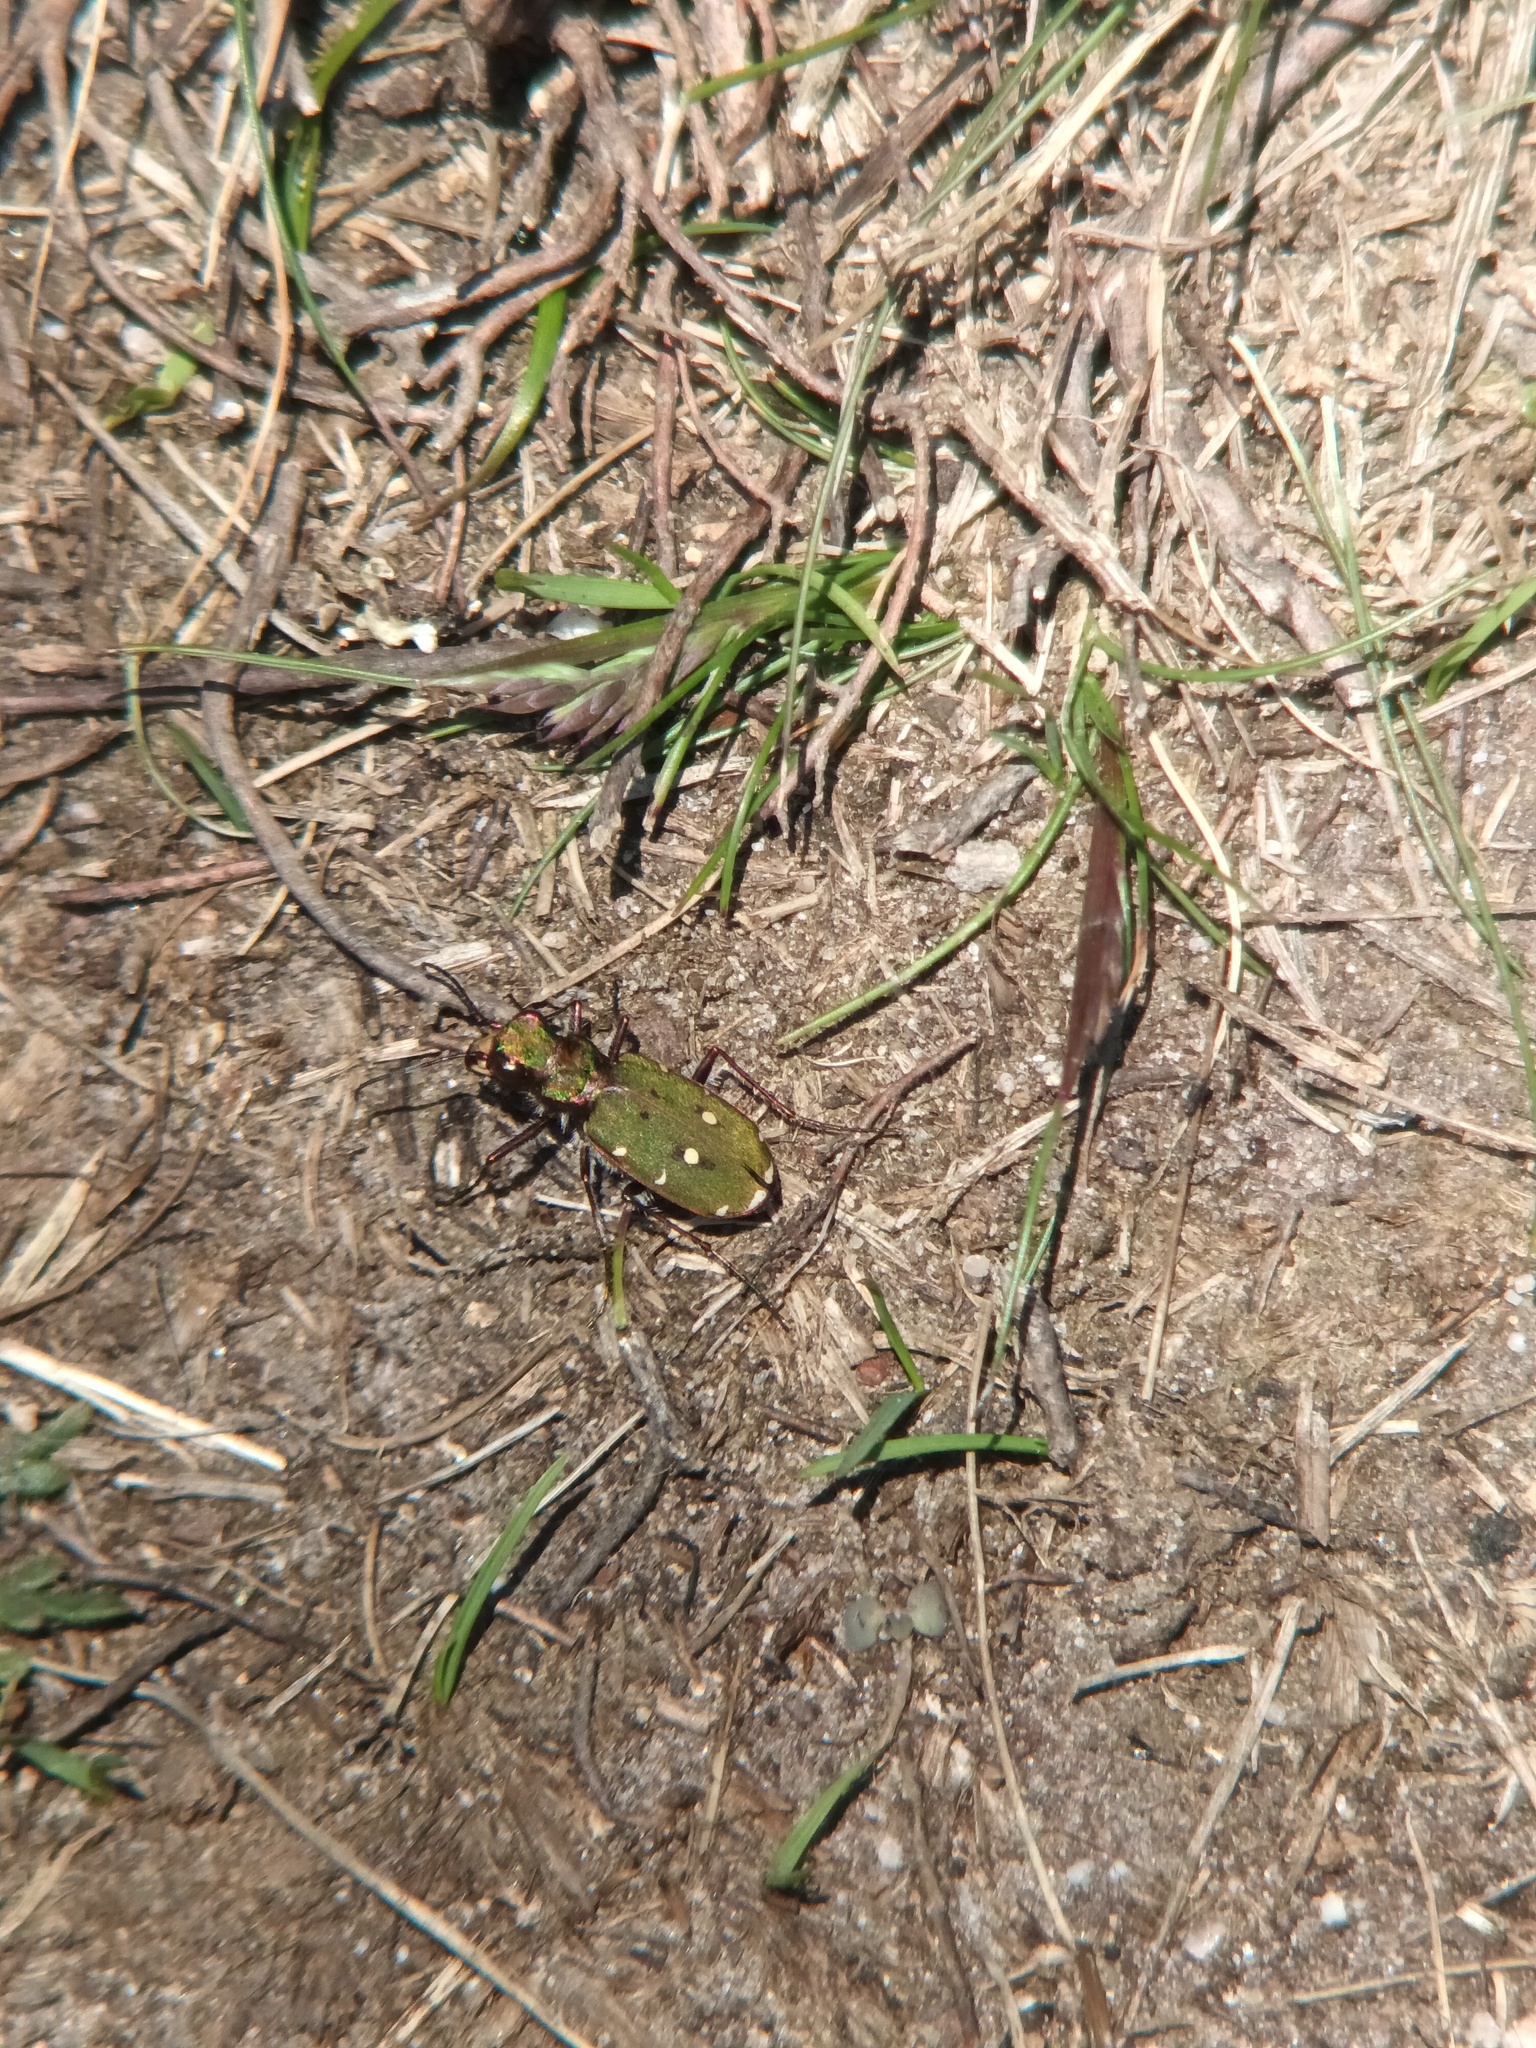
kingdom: Animalia
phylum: Arthropoda
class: Insecta
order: Coleoptera
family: Carabidae
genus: Cicindela
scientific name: Cicindela campestris
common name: Common tiger beetle
